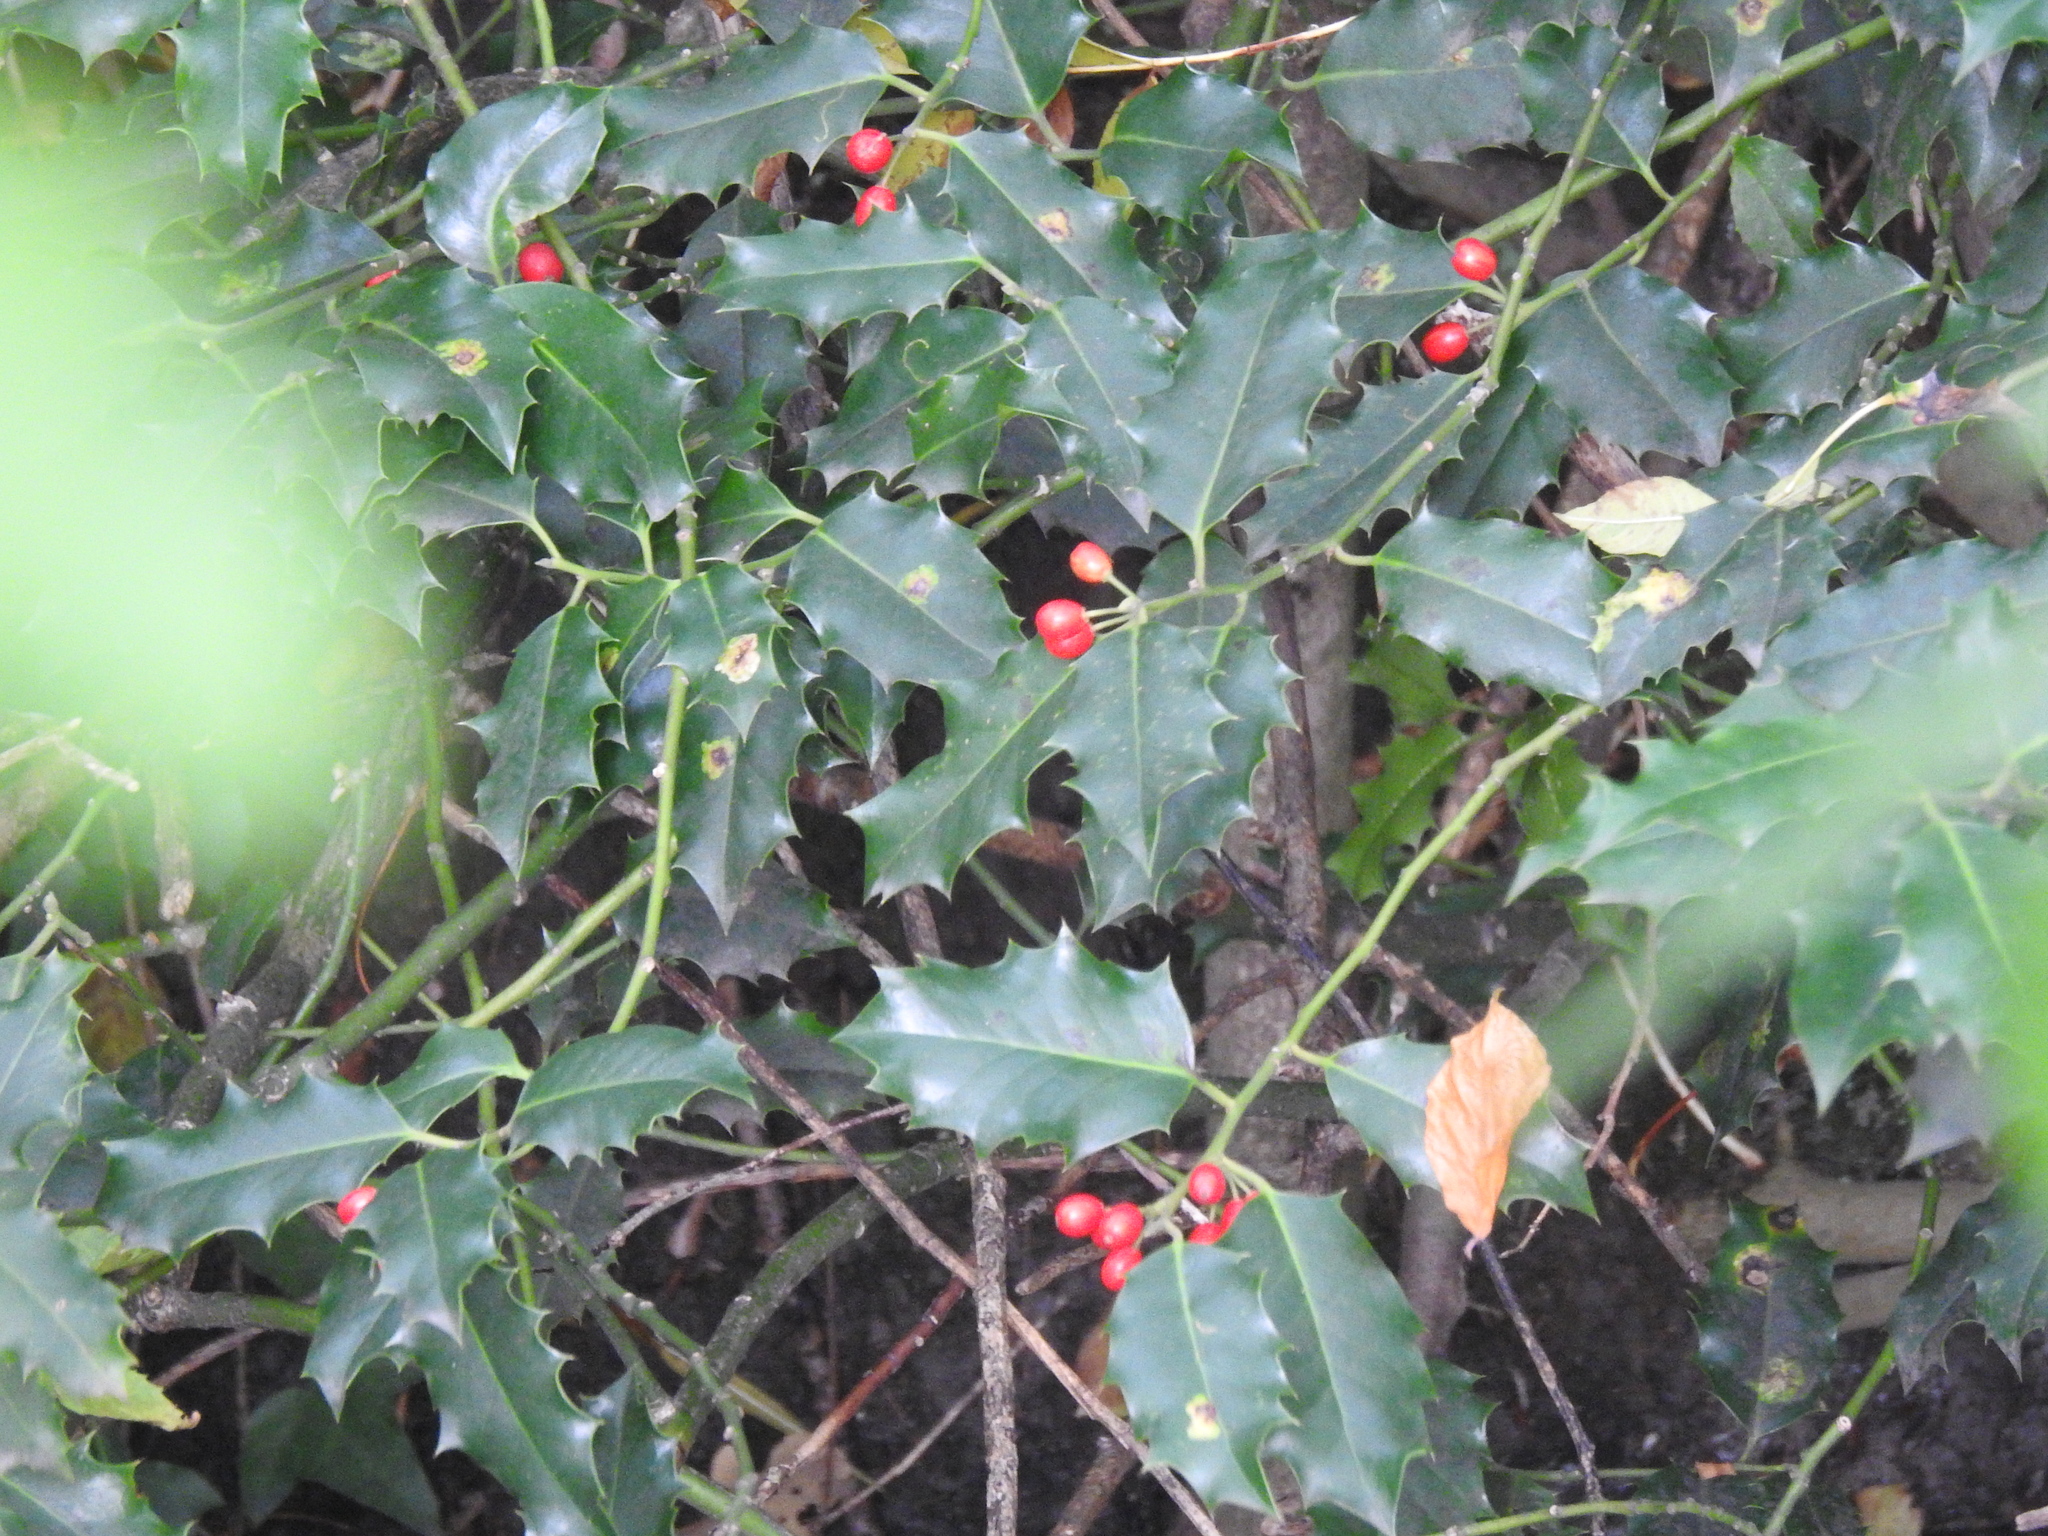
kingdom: Plantae
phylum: Tracheophyta
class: Magnoliopsida
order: Aquifoliales
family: Aquifoliaceae
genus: Ilex
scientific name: Ilex aquifolium
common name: English holly
